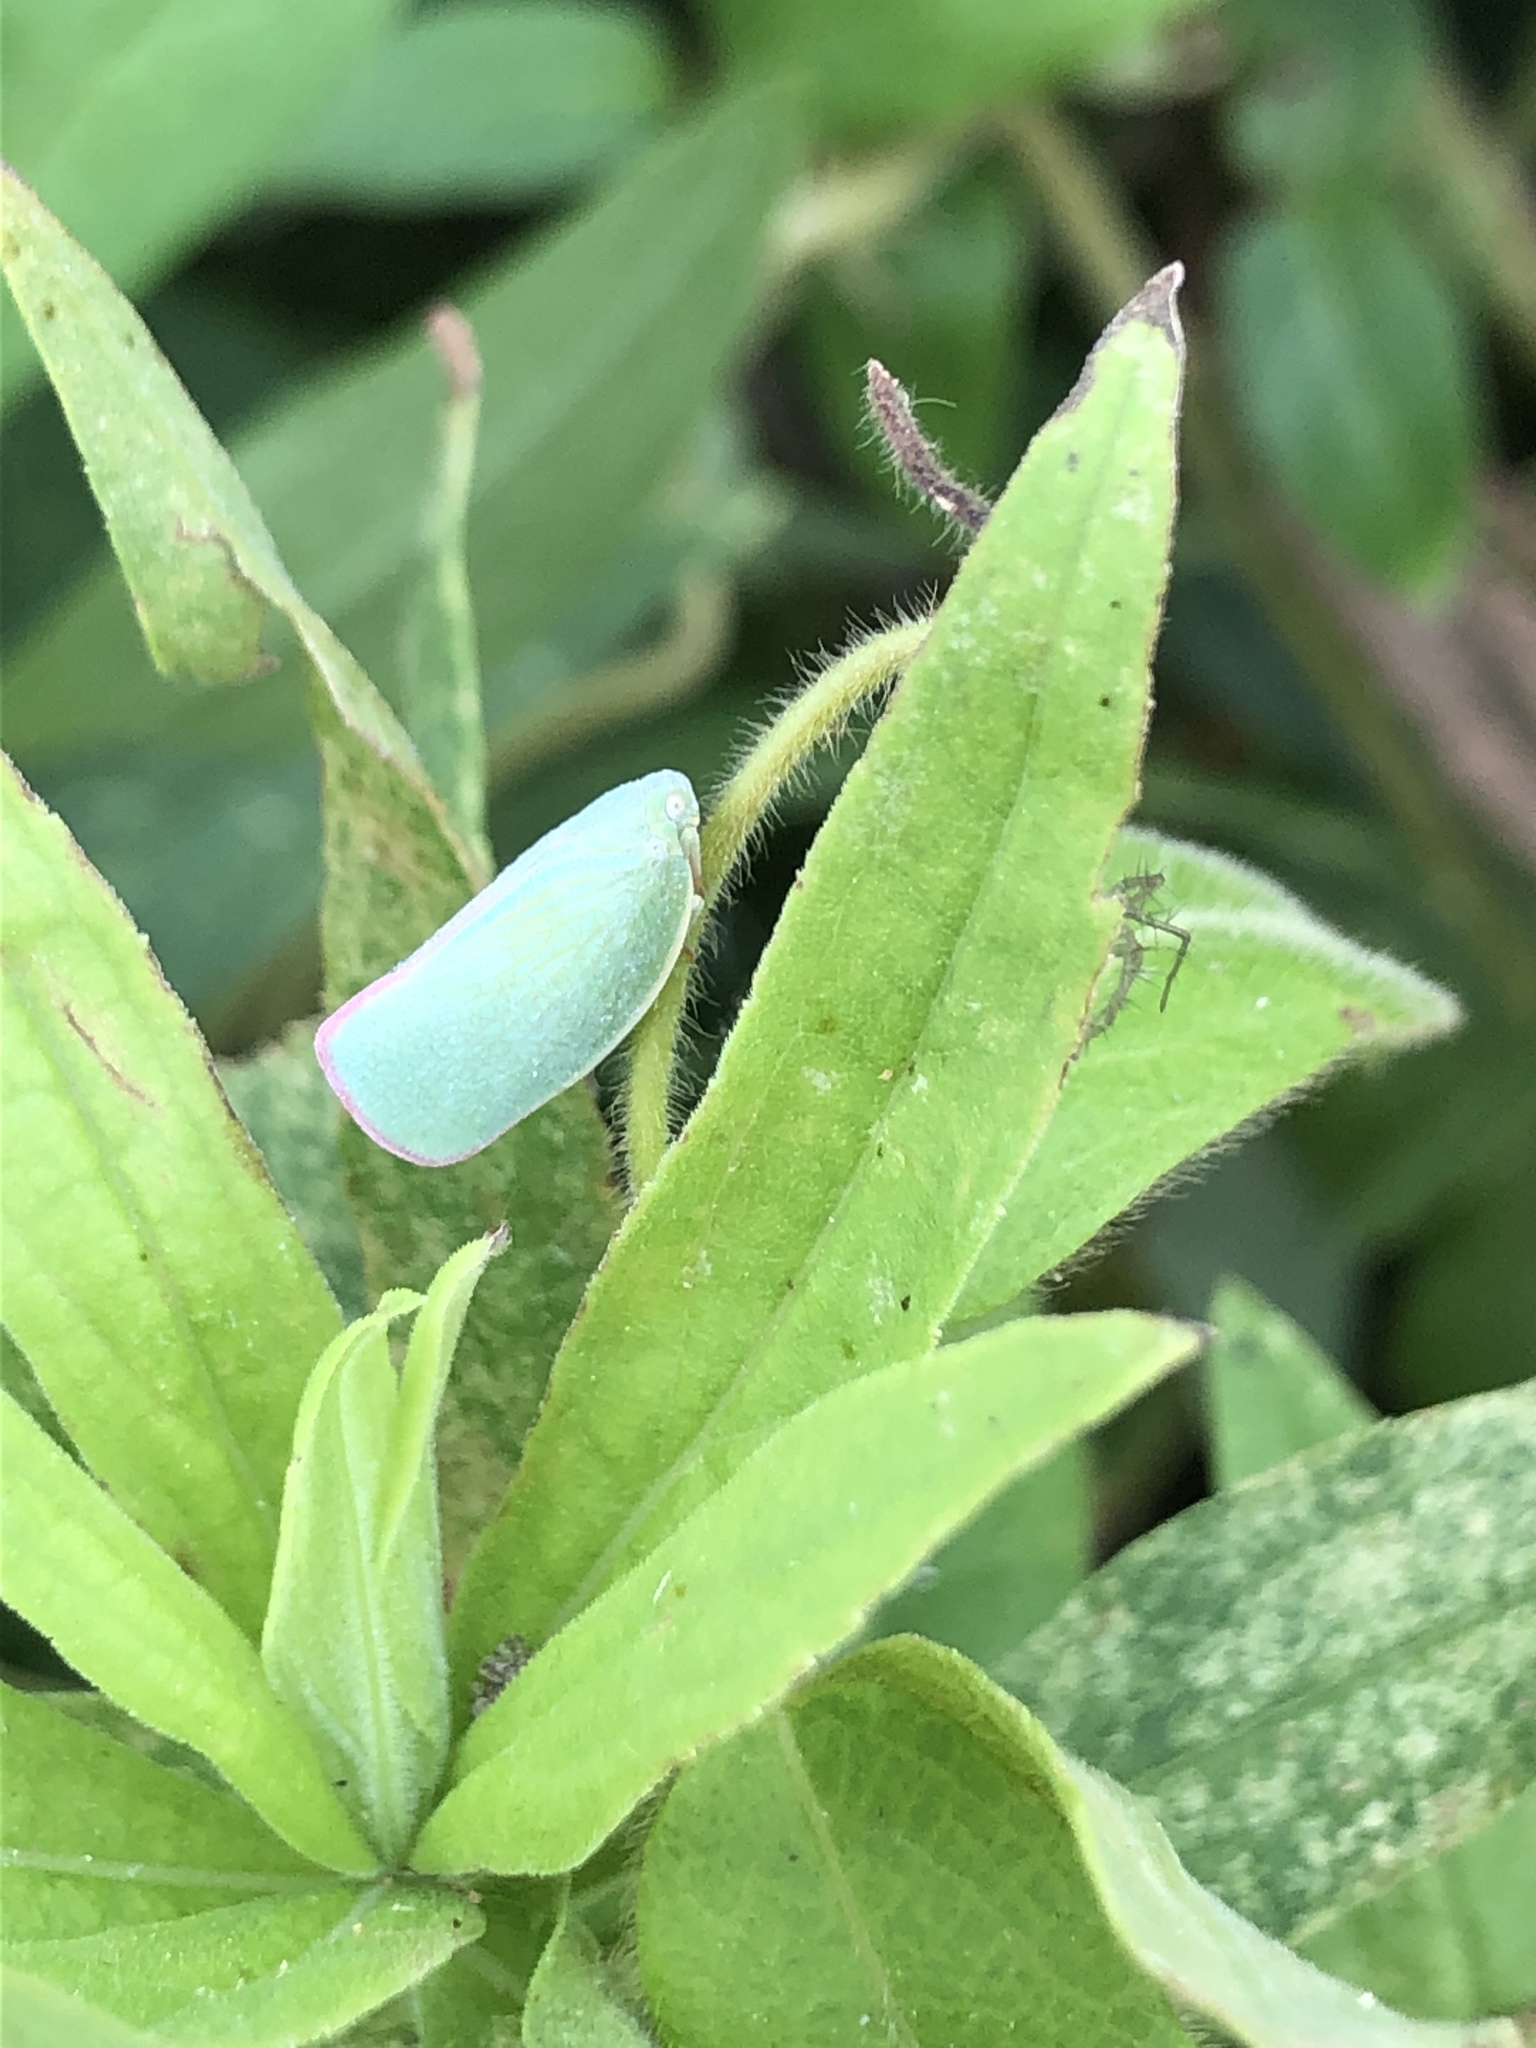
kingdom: Animalia
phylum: Arthropoda
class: Insecta
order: Hemiptera
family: Flatidae
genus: Geisha
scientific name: Geisha distinctissima
